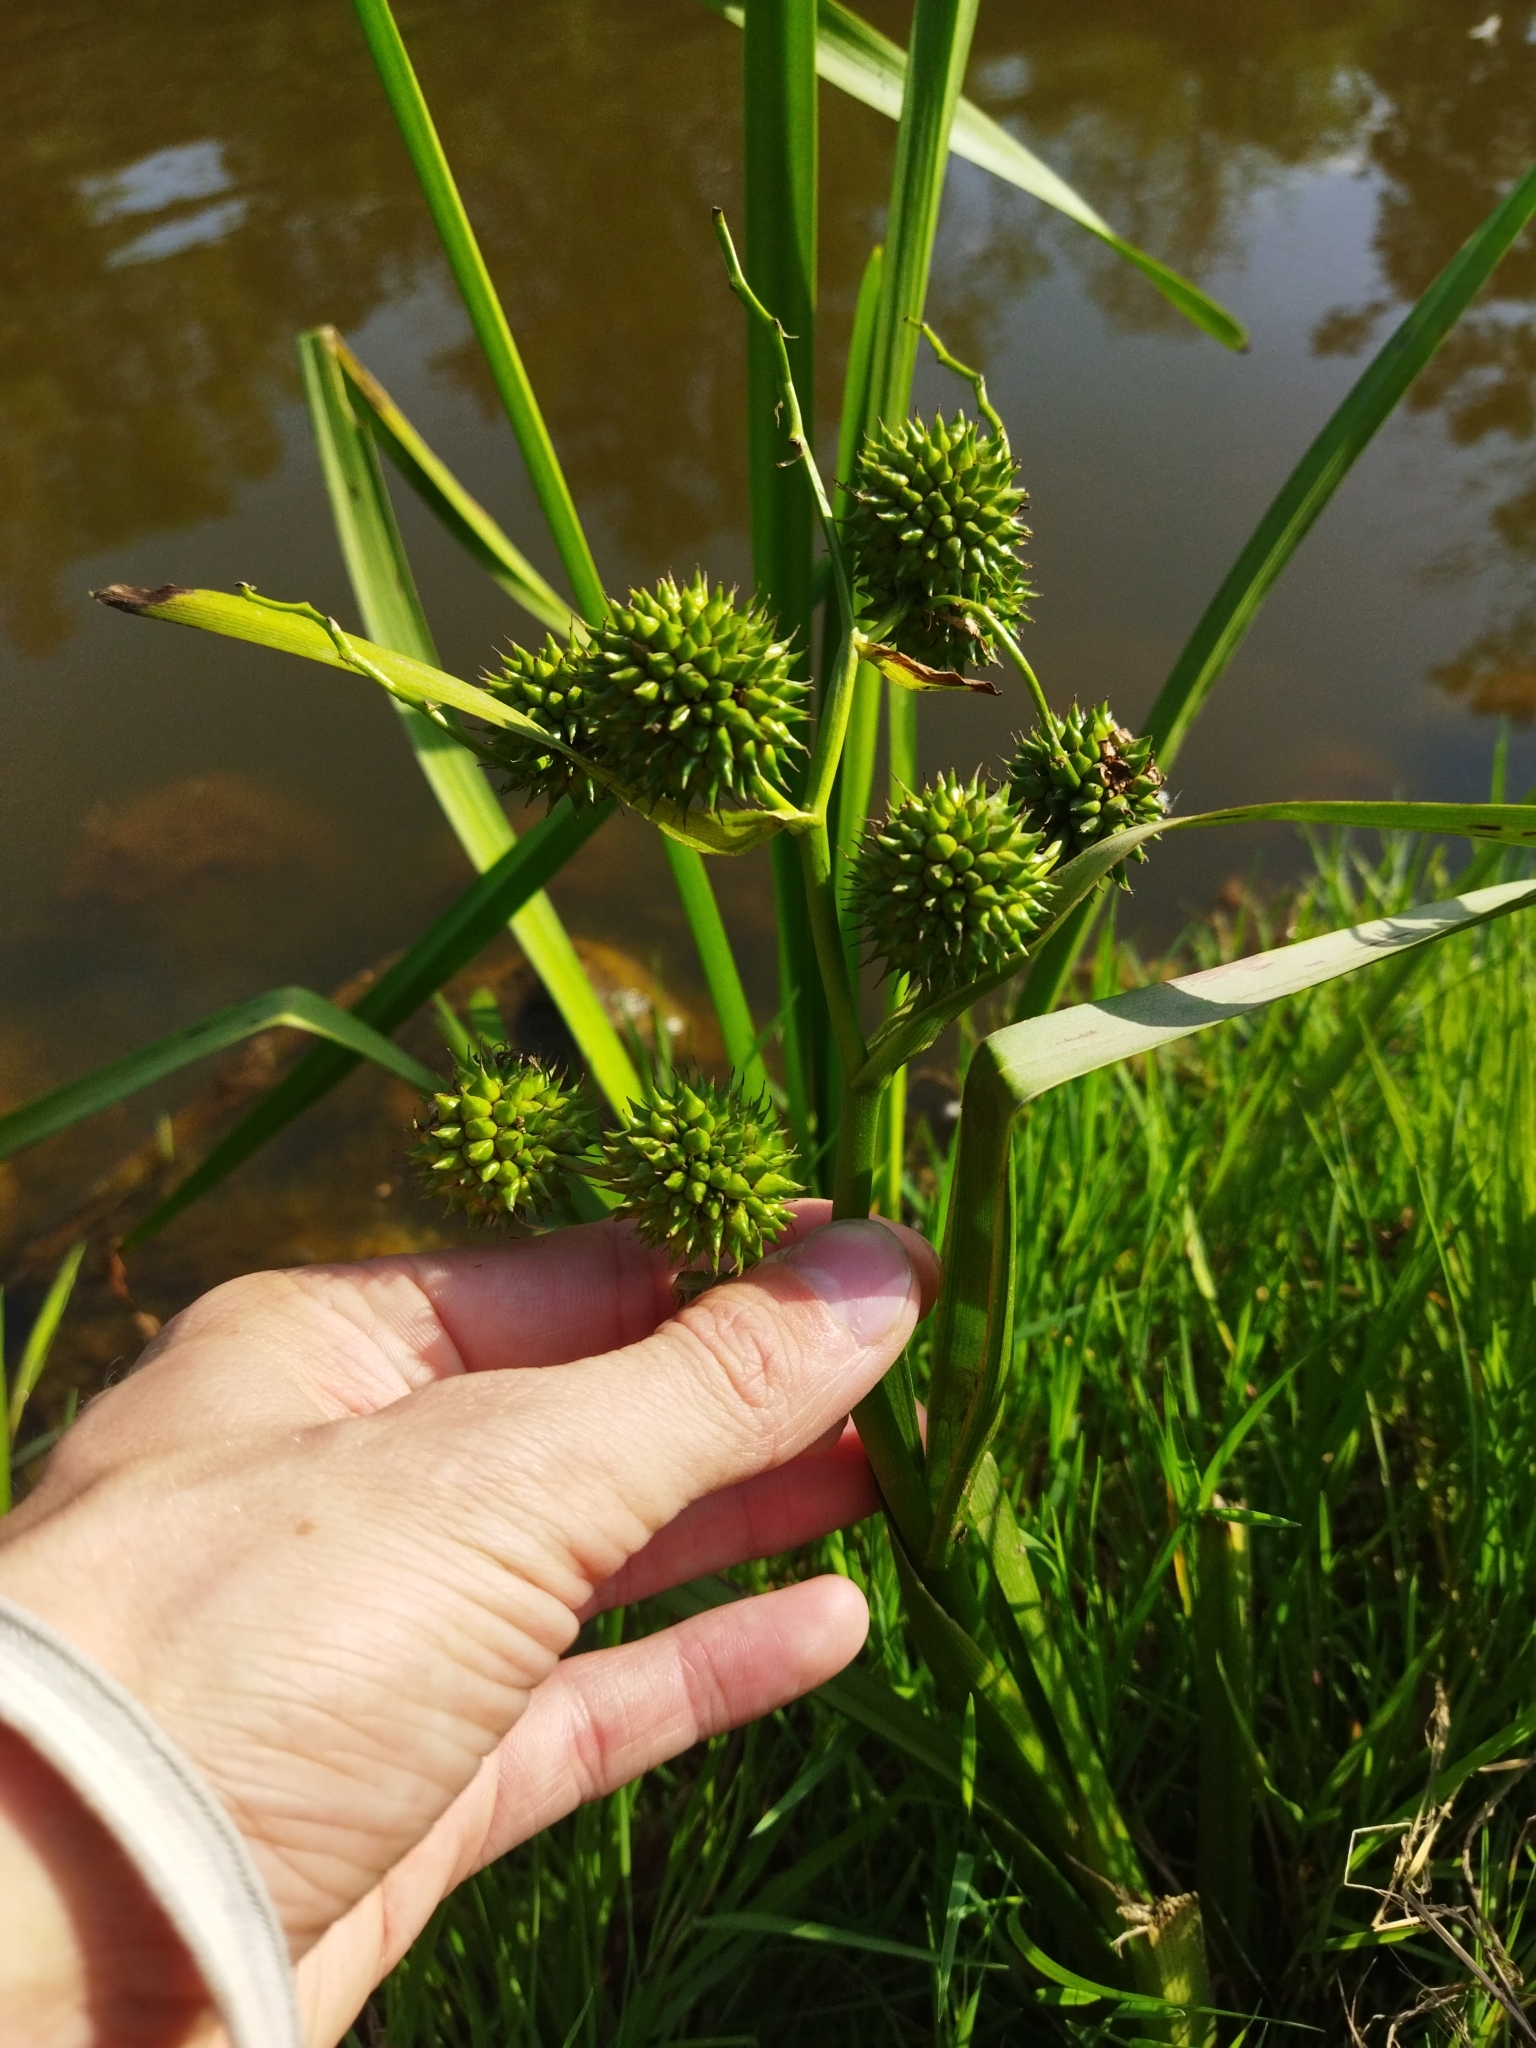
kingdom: Plantae
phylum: Tracheophyta
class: Liliopsida
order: Poales
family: Typhaceae
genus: Sparganium
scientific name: Sparganium erectum
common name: Branched bur-reed
